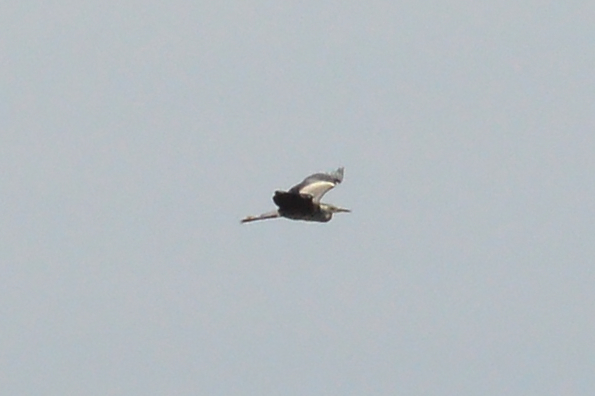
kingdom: Animalia
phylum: Chordata
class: Aves
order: Pelecaniformes
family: Ardeidae
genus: Ardea
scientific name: Ardea cinerea
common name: Grey heron
